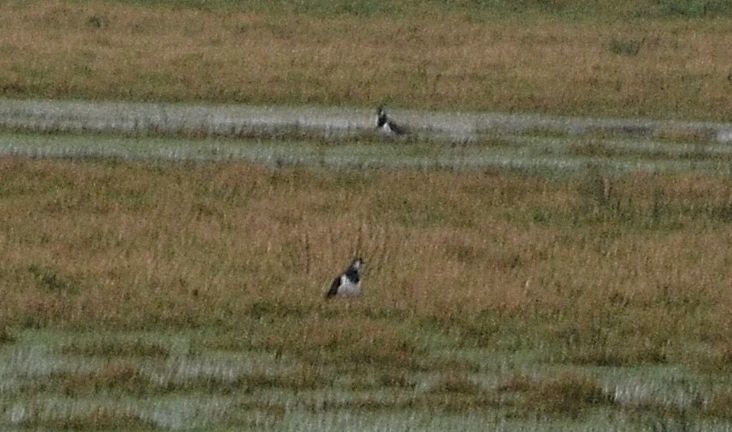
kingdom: Animalia
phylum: Chordata
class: Aves
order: Charadriiformes
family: Charadriidae
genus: Vanellus
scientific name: Vanellus vanellus
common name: Northern lapwing
